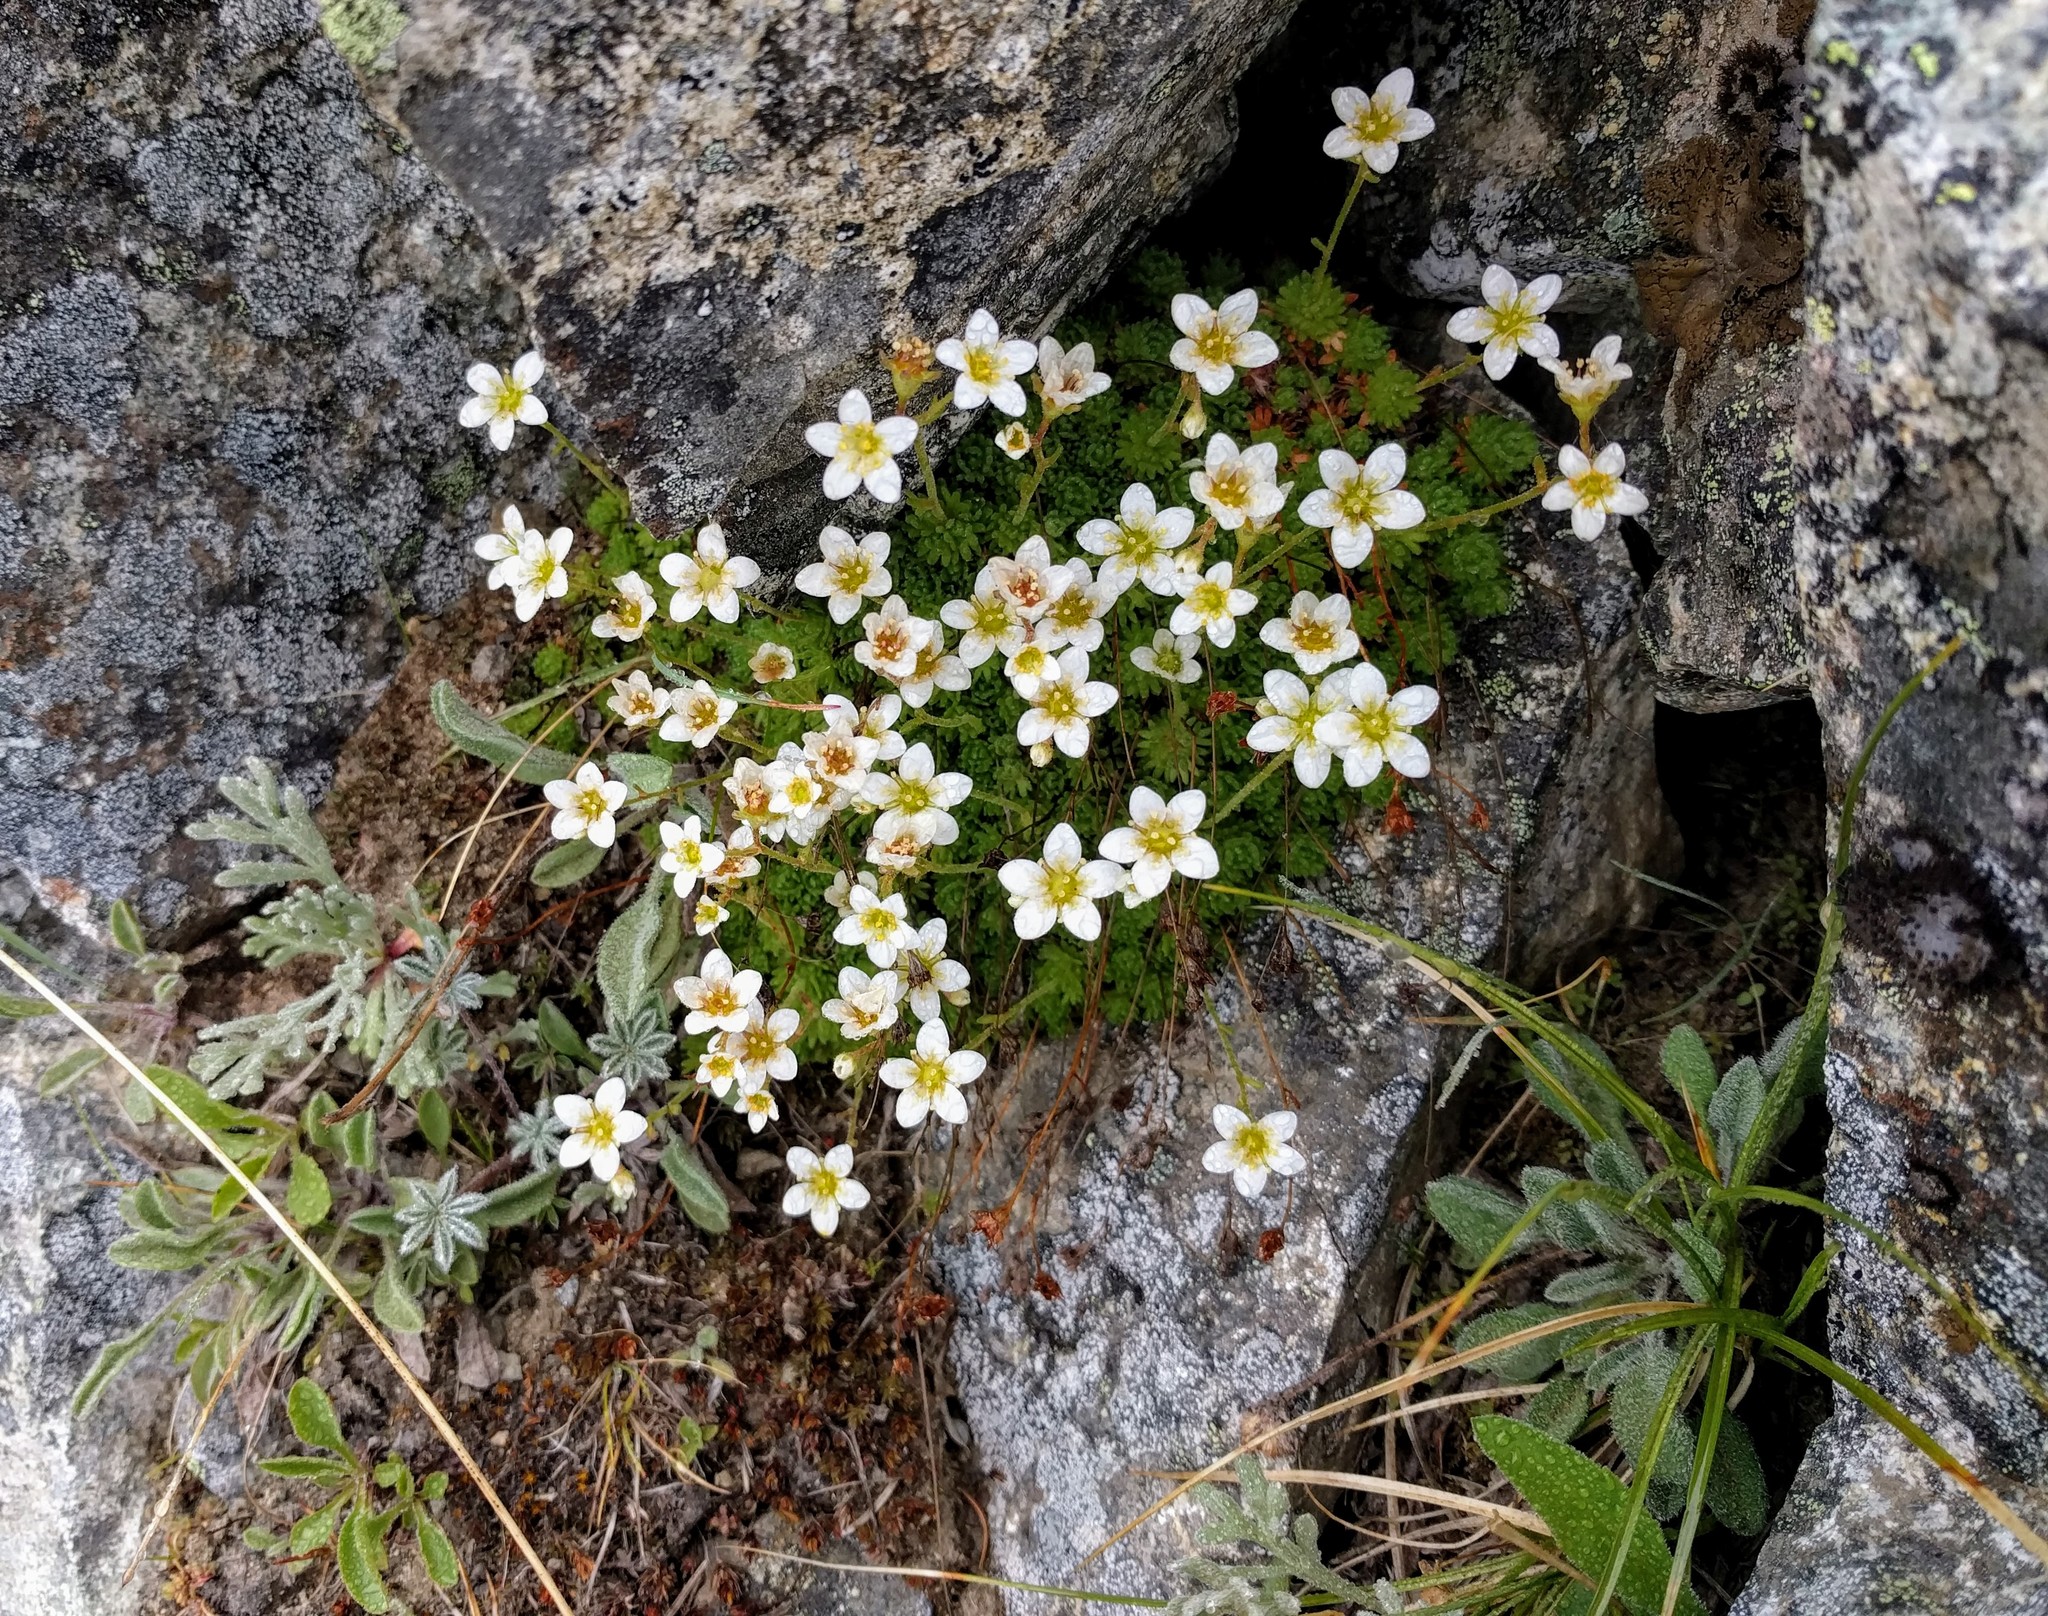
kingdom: Plantae
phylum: Tracheophyta
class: Magnoliopsida
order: Saxifragales
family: Saxifragaceae
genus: Micranthes
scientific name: Micranthes tolmiei
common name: Tolmie's saxifrage
